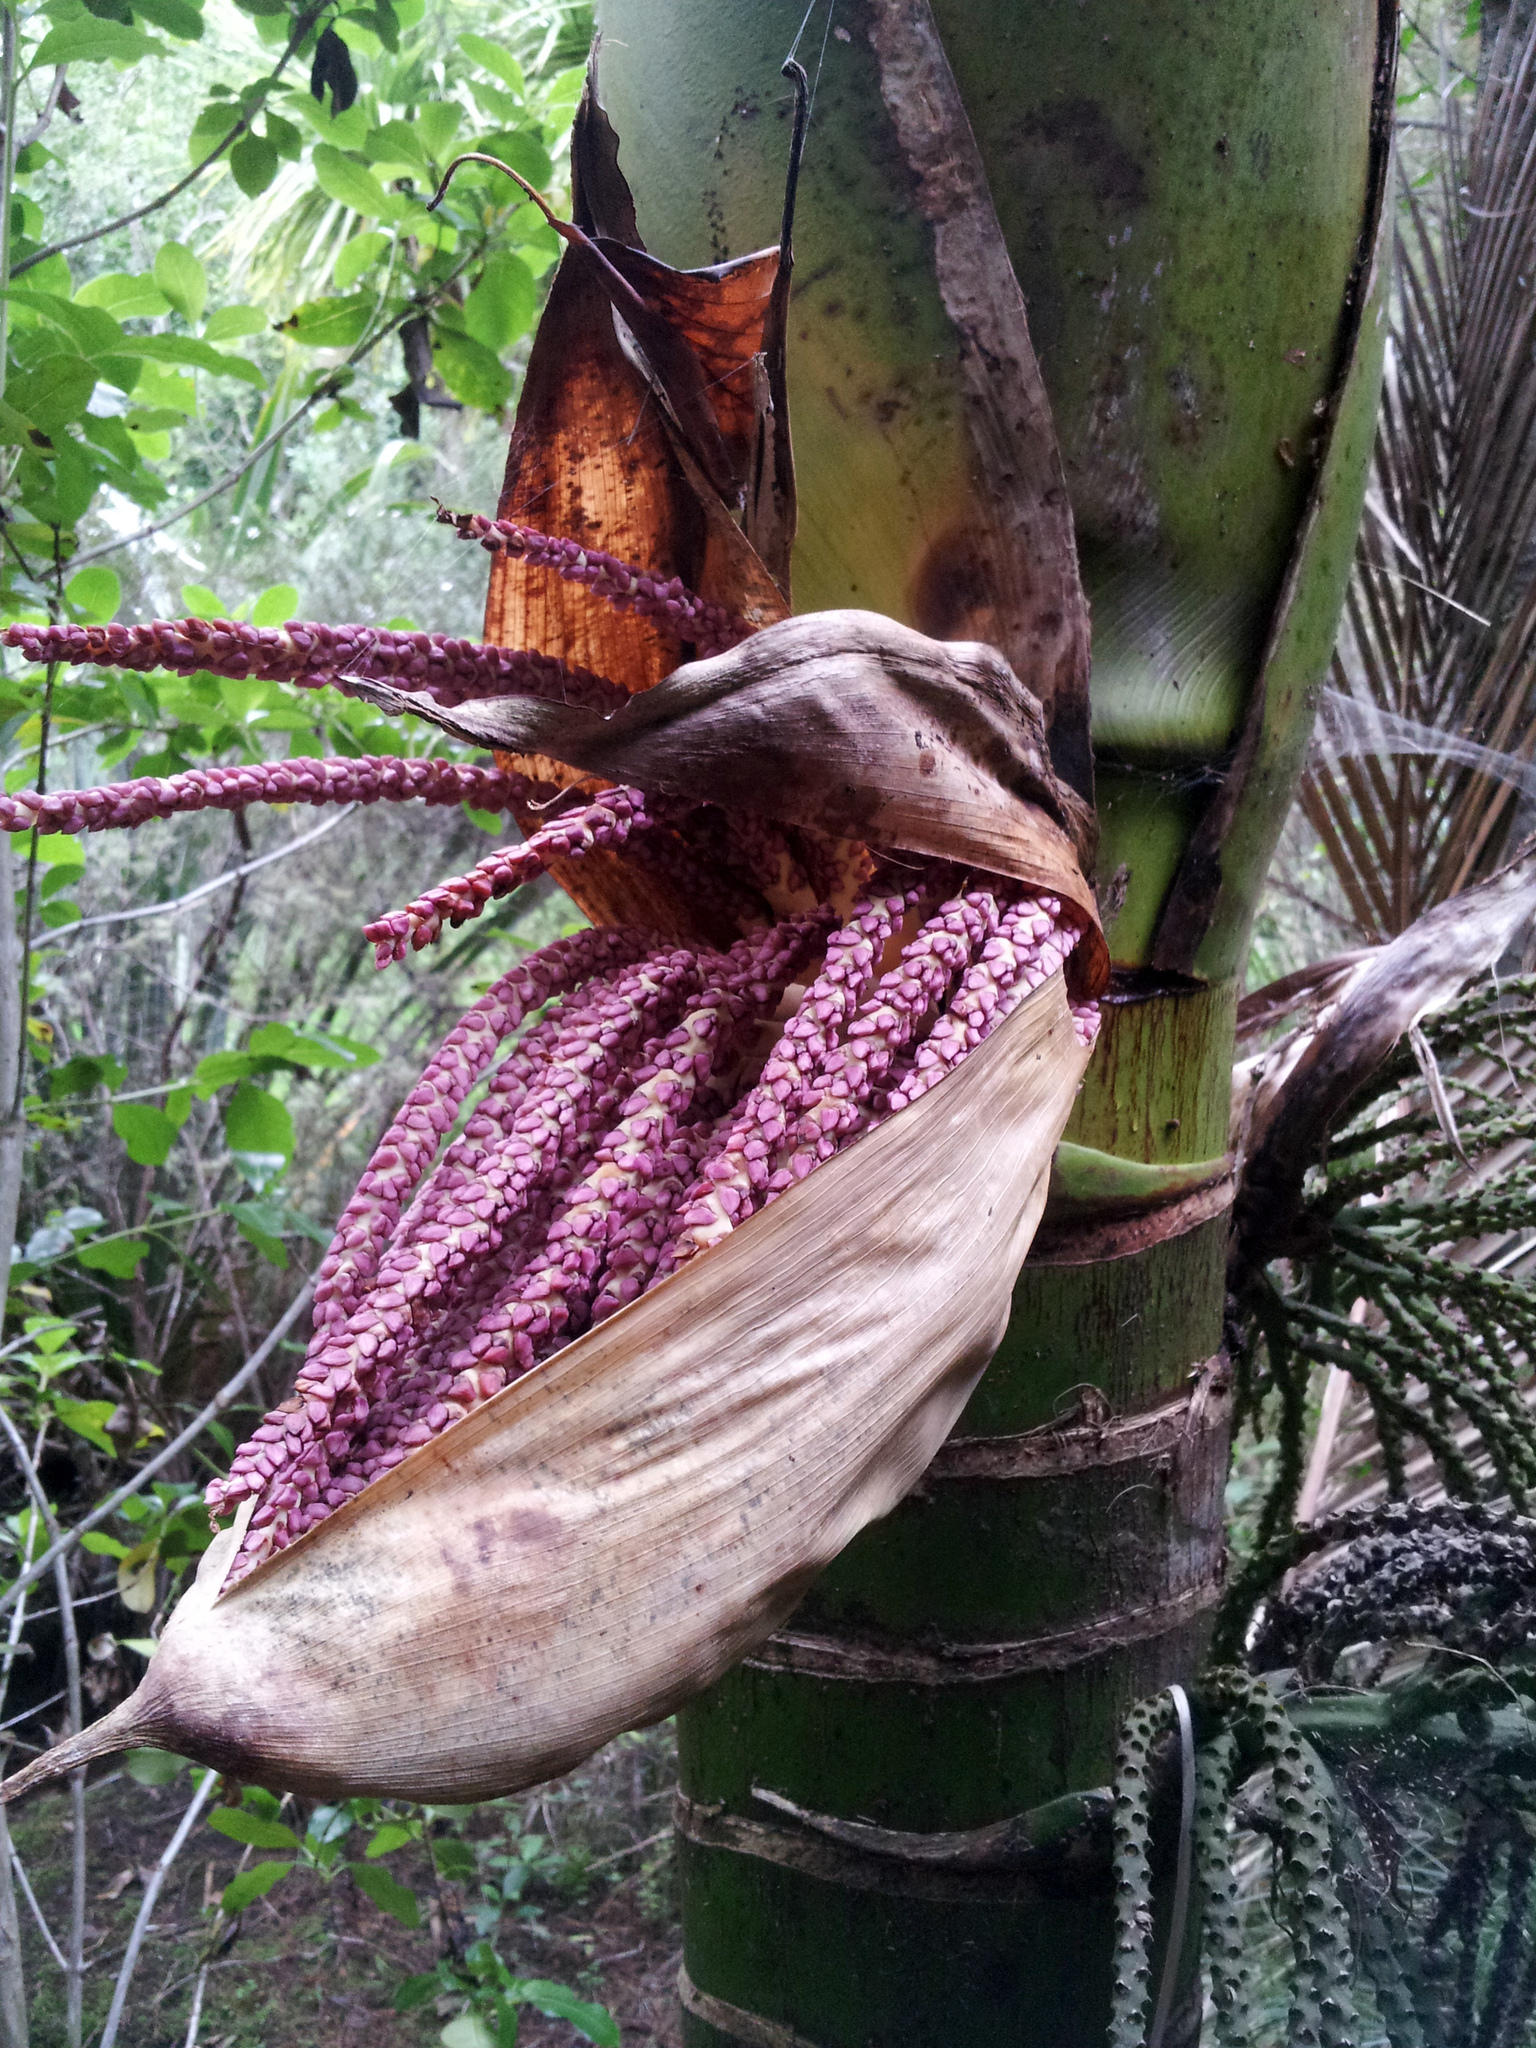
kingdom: Plantae
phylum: Tracheophyta
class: Liliopsida
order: Arecales
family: Arecaceae
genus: Rhopalostylis
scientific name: Rhopalostylis sapida
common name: Feather-duster palm
